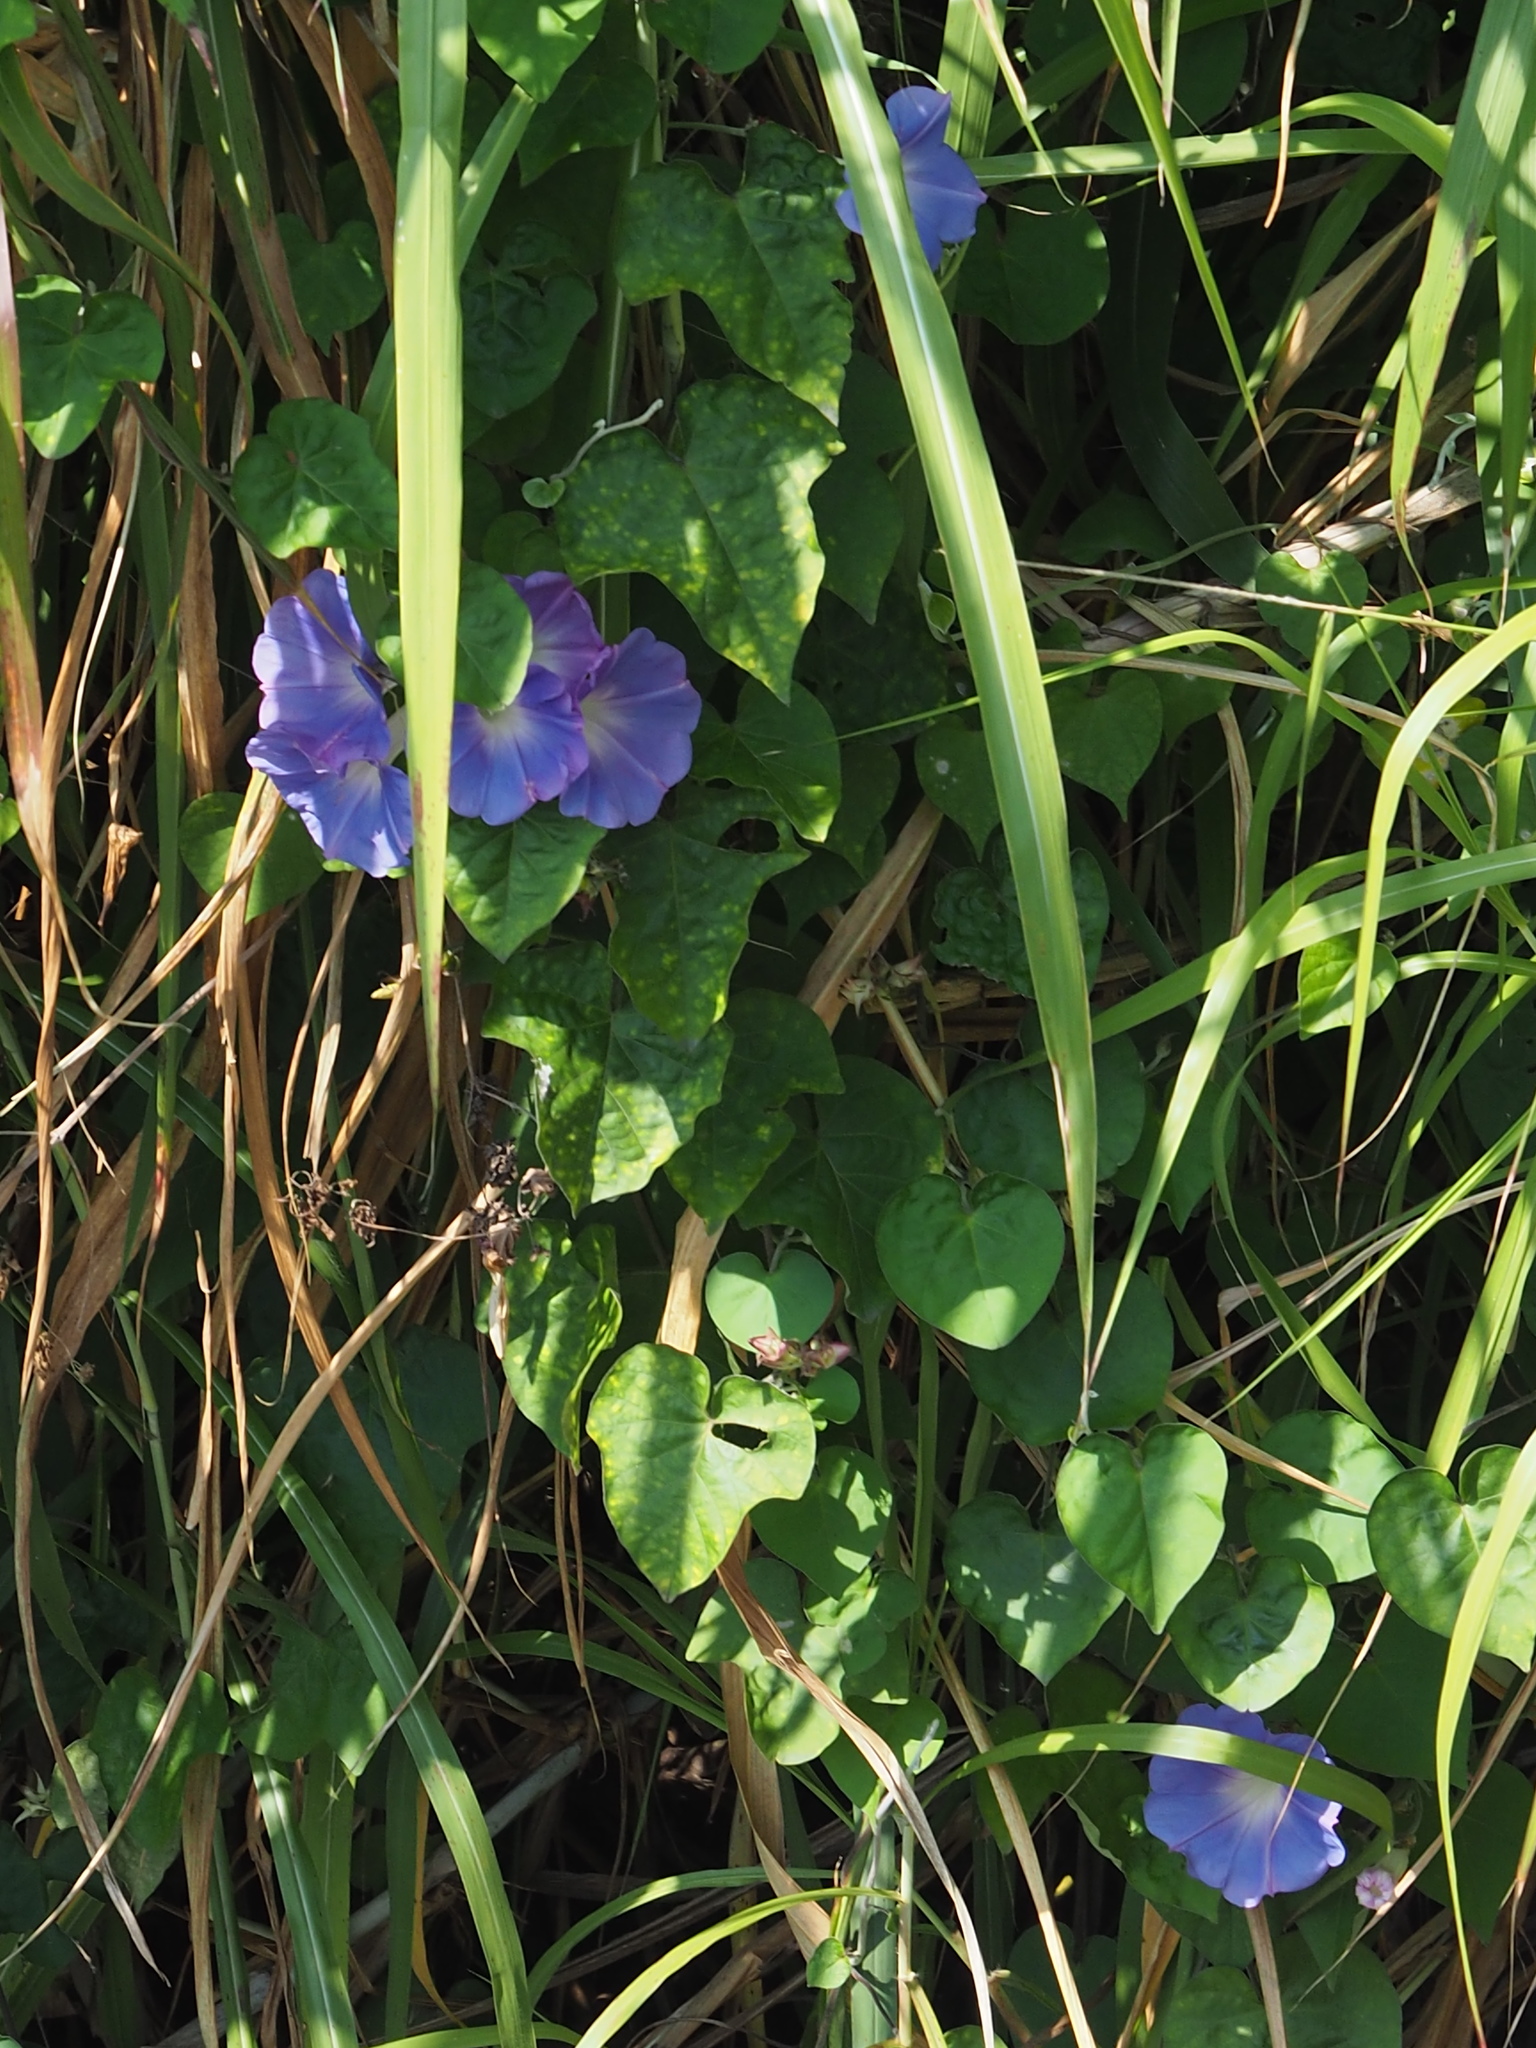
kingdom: Plantae
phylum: Tracheophyta
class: Magnoliopsida
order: Solanales
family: Convolvulaceae
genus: Ipomoea
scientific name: Ipomoea indica
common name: Blue dawnflower
